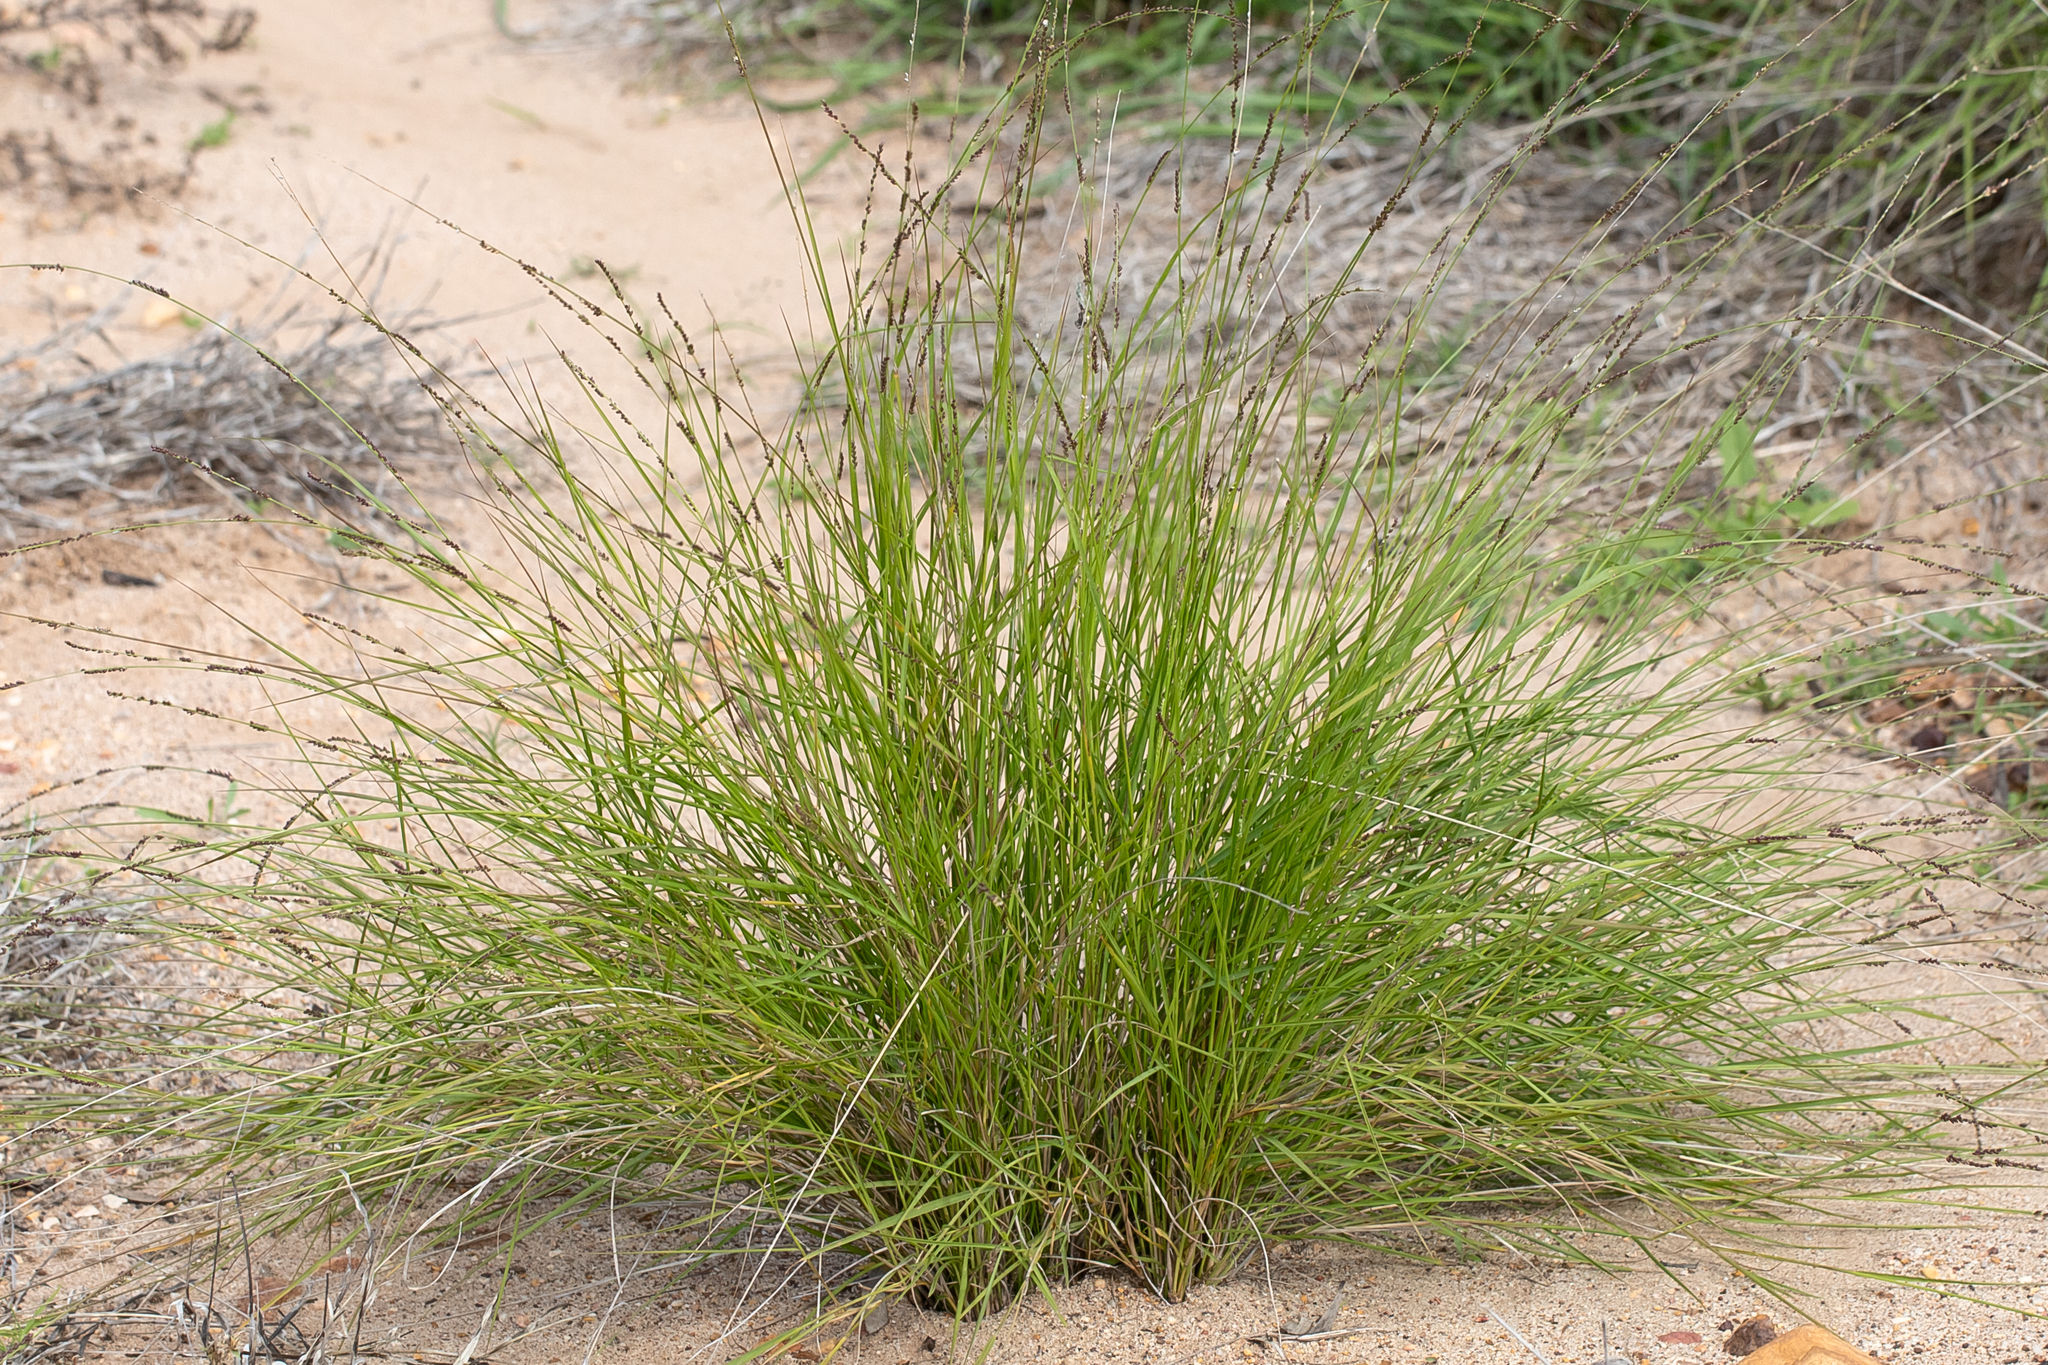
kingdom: Plantae
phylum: Tracheophyta
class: Liliopsida
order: Poales
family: Poaceae
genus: Setaria
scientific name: Setaria distans
